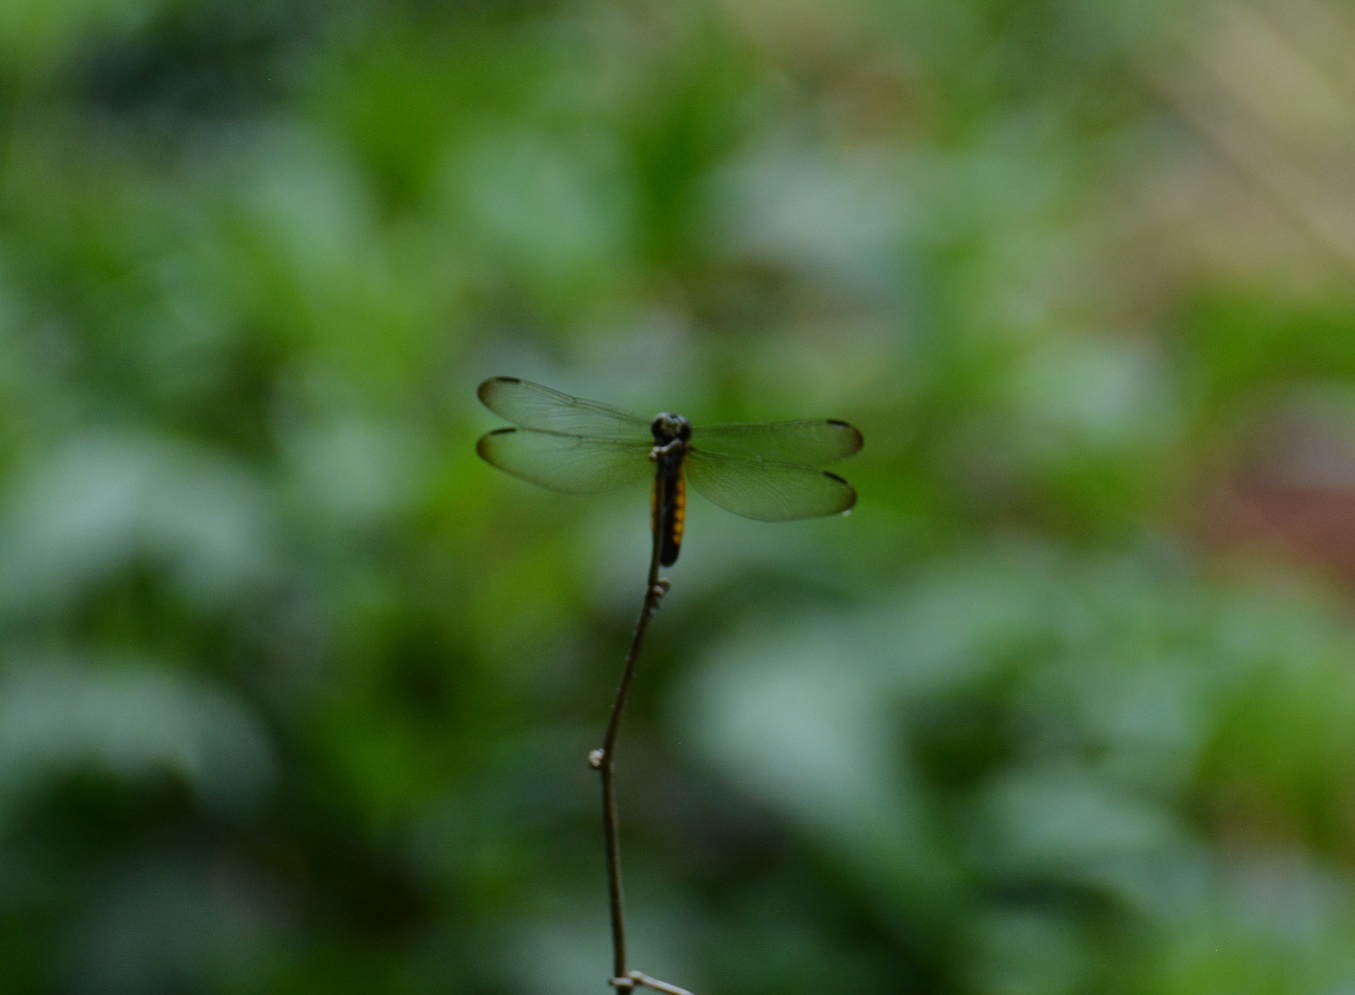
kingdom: Animalia
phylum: Arthropoda
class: Insecta
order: Odonata
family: Libellulidae
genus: Lyriothemis
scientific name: Lyriothemis tricolor
